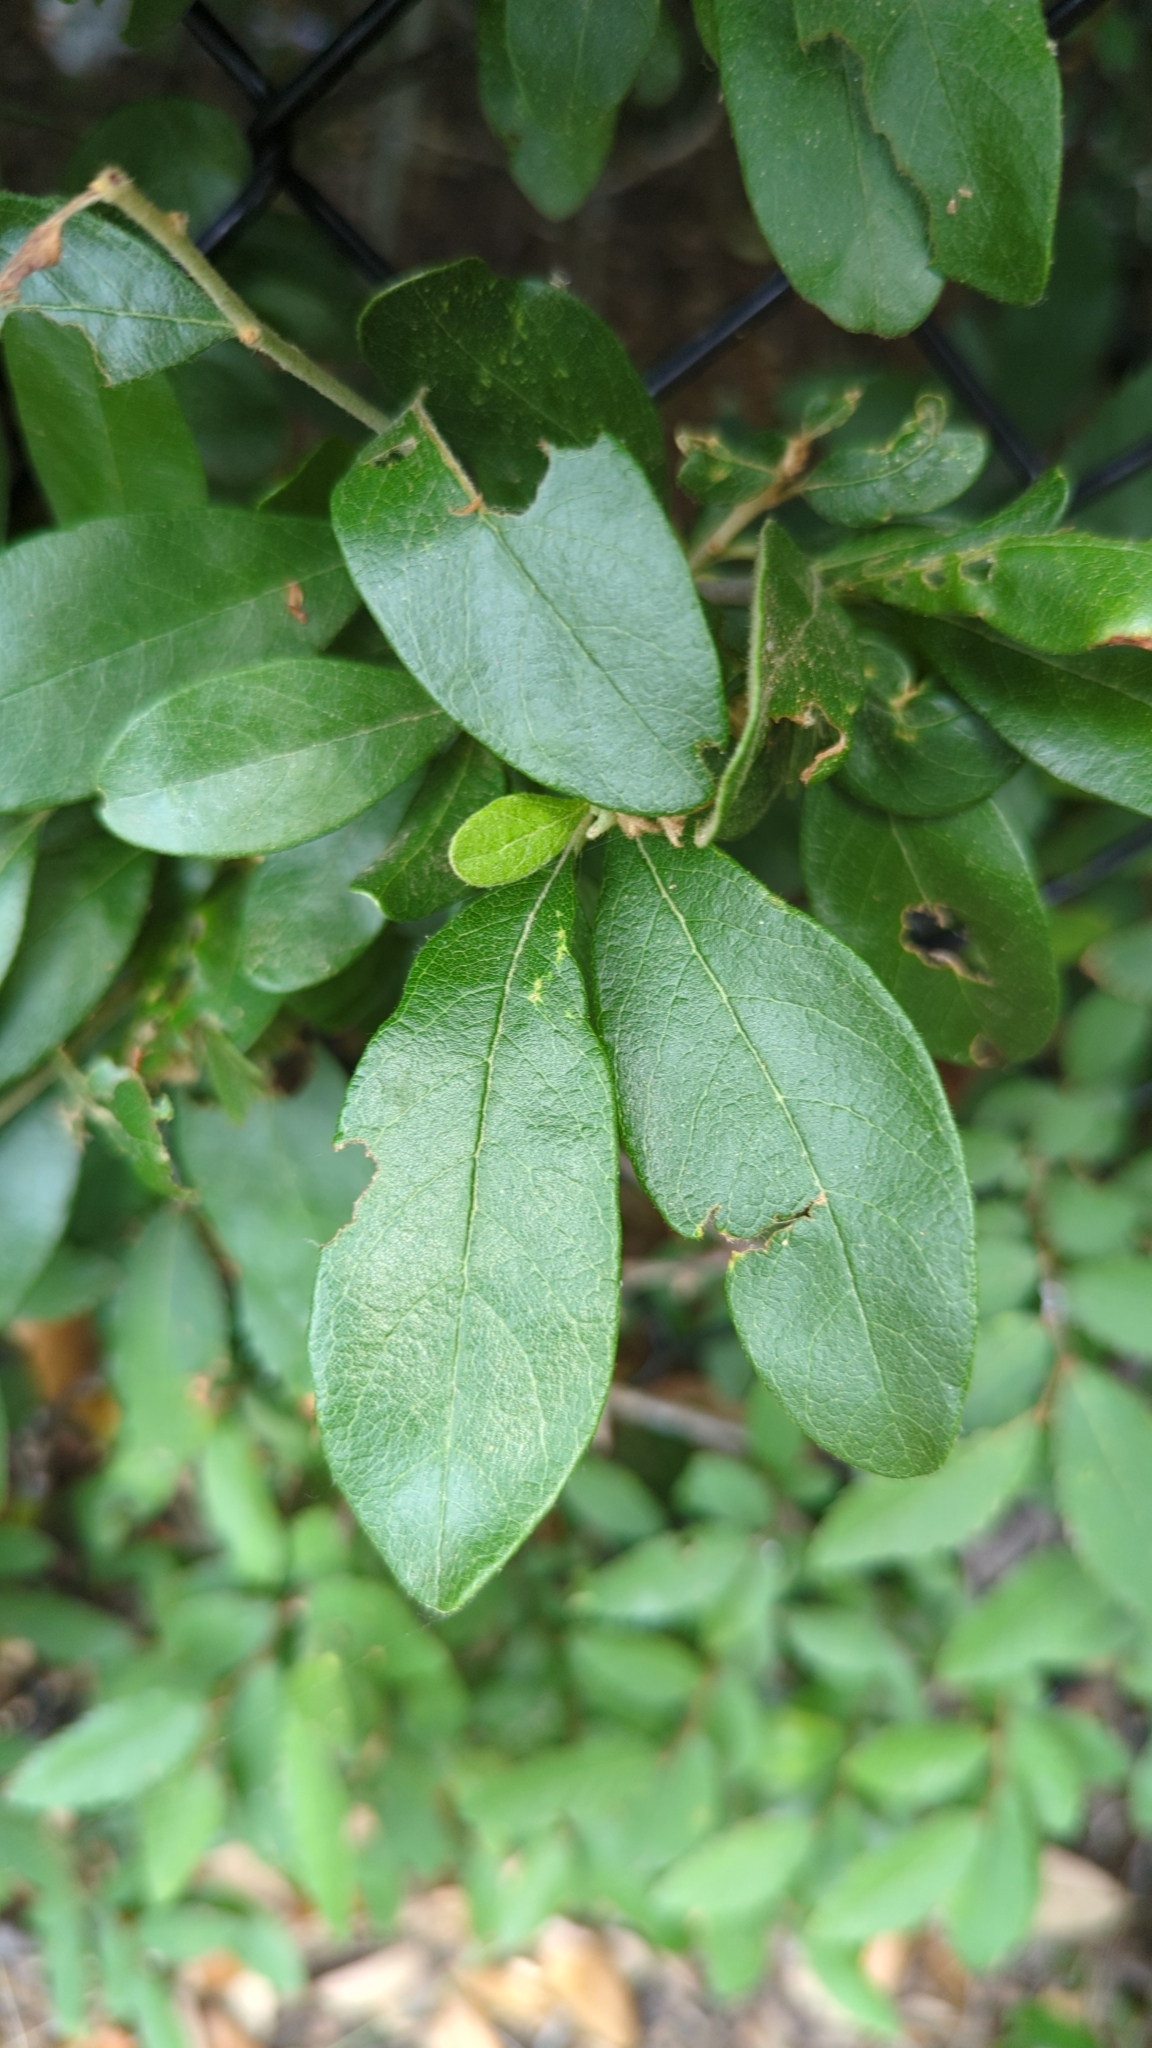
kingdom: Plantae
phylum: Tracheophyta
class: Magnoliopsida
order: Ericales
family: Sapotaceae
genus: Sideroxylon
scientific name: Sideroxylon lanuginosum
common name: Chittamwood
